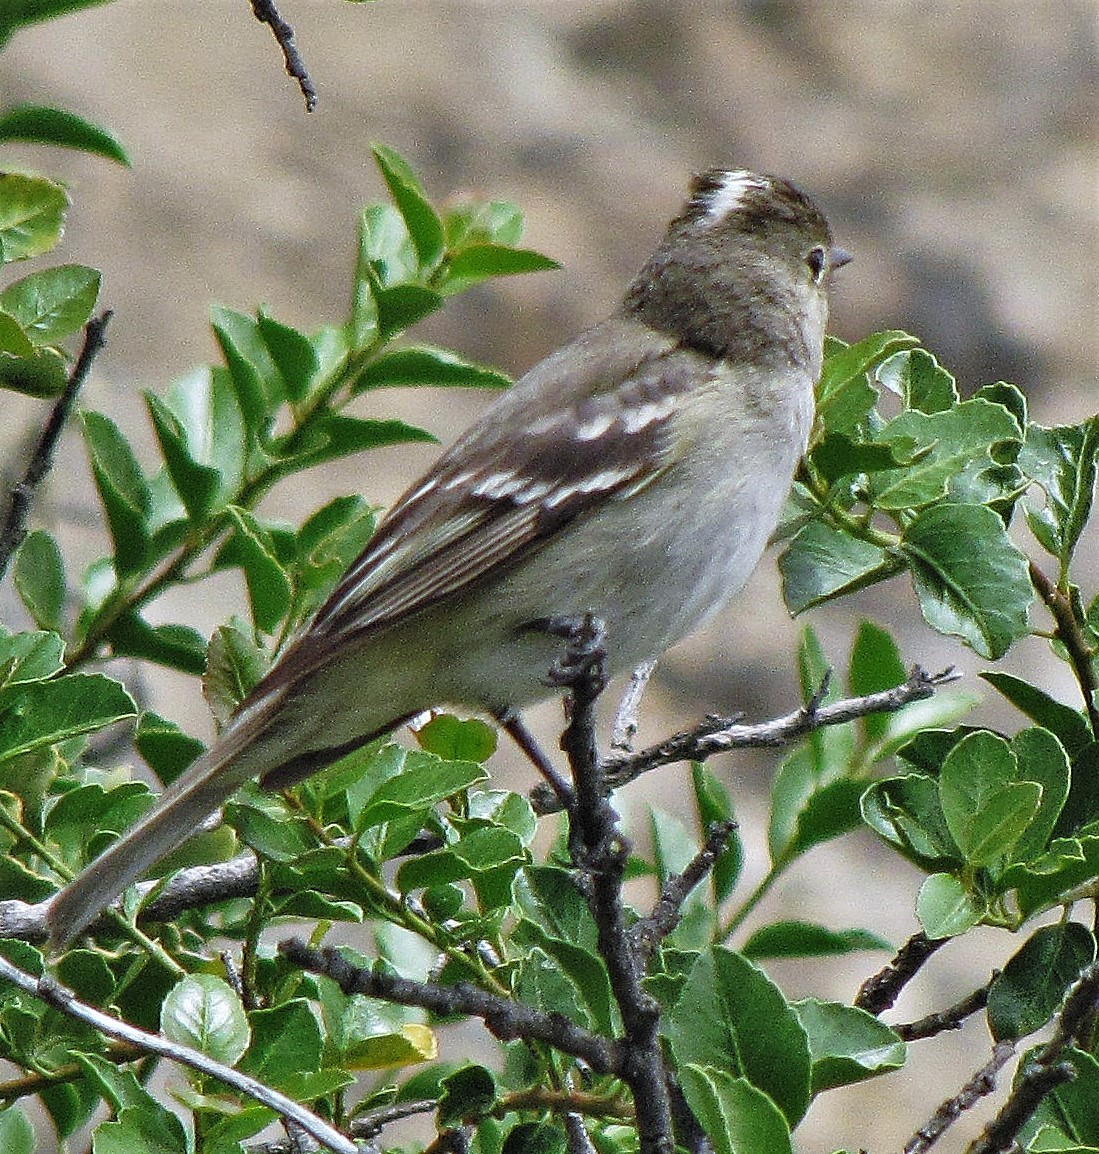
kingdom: Animalia
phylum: Chordata
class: Aves
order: Passeriformes
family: Tyrannidae
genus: Elaenia
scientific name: Elaenia albiceps
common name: White-crested elaenia
